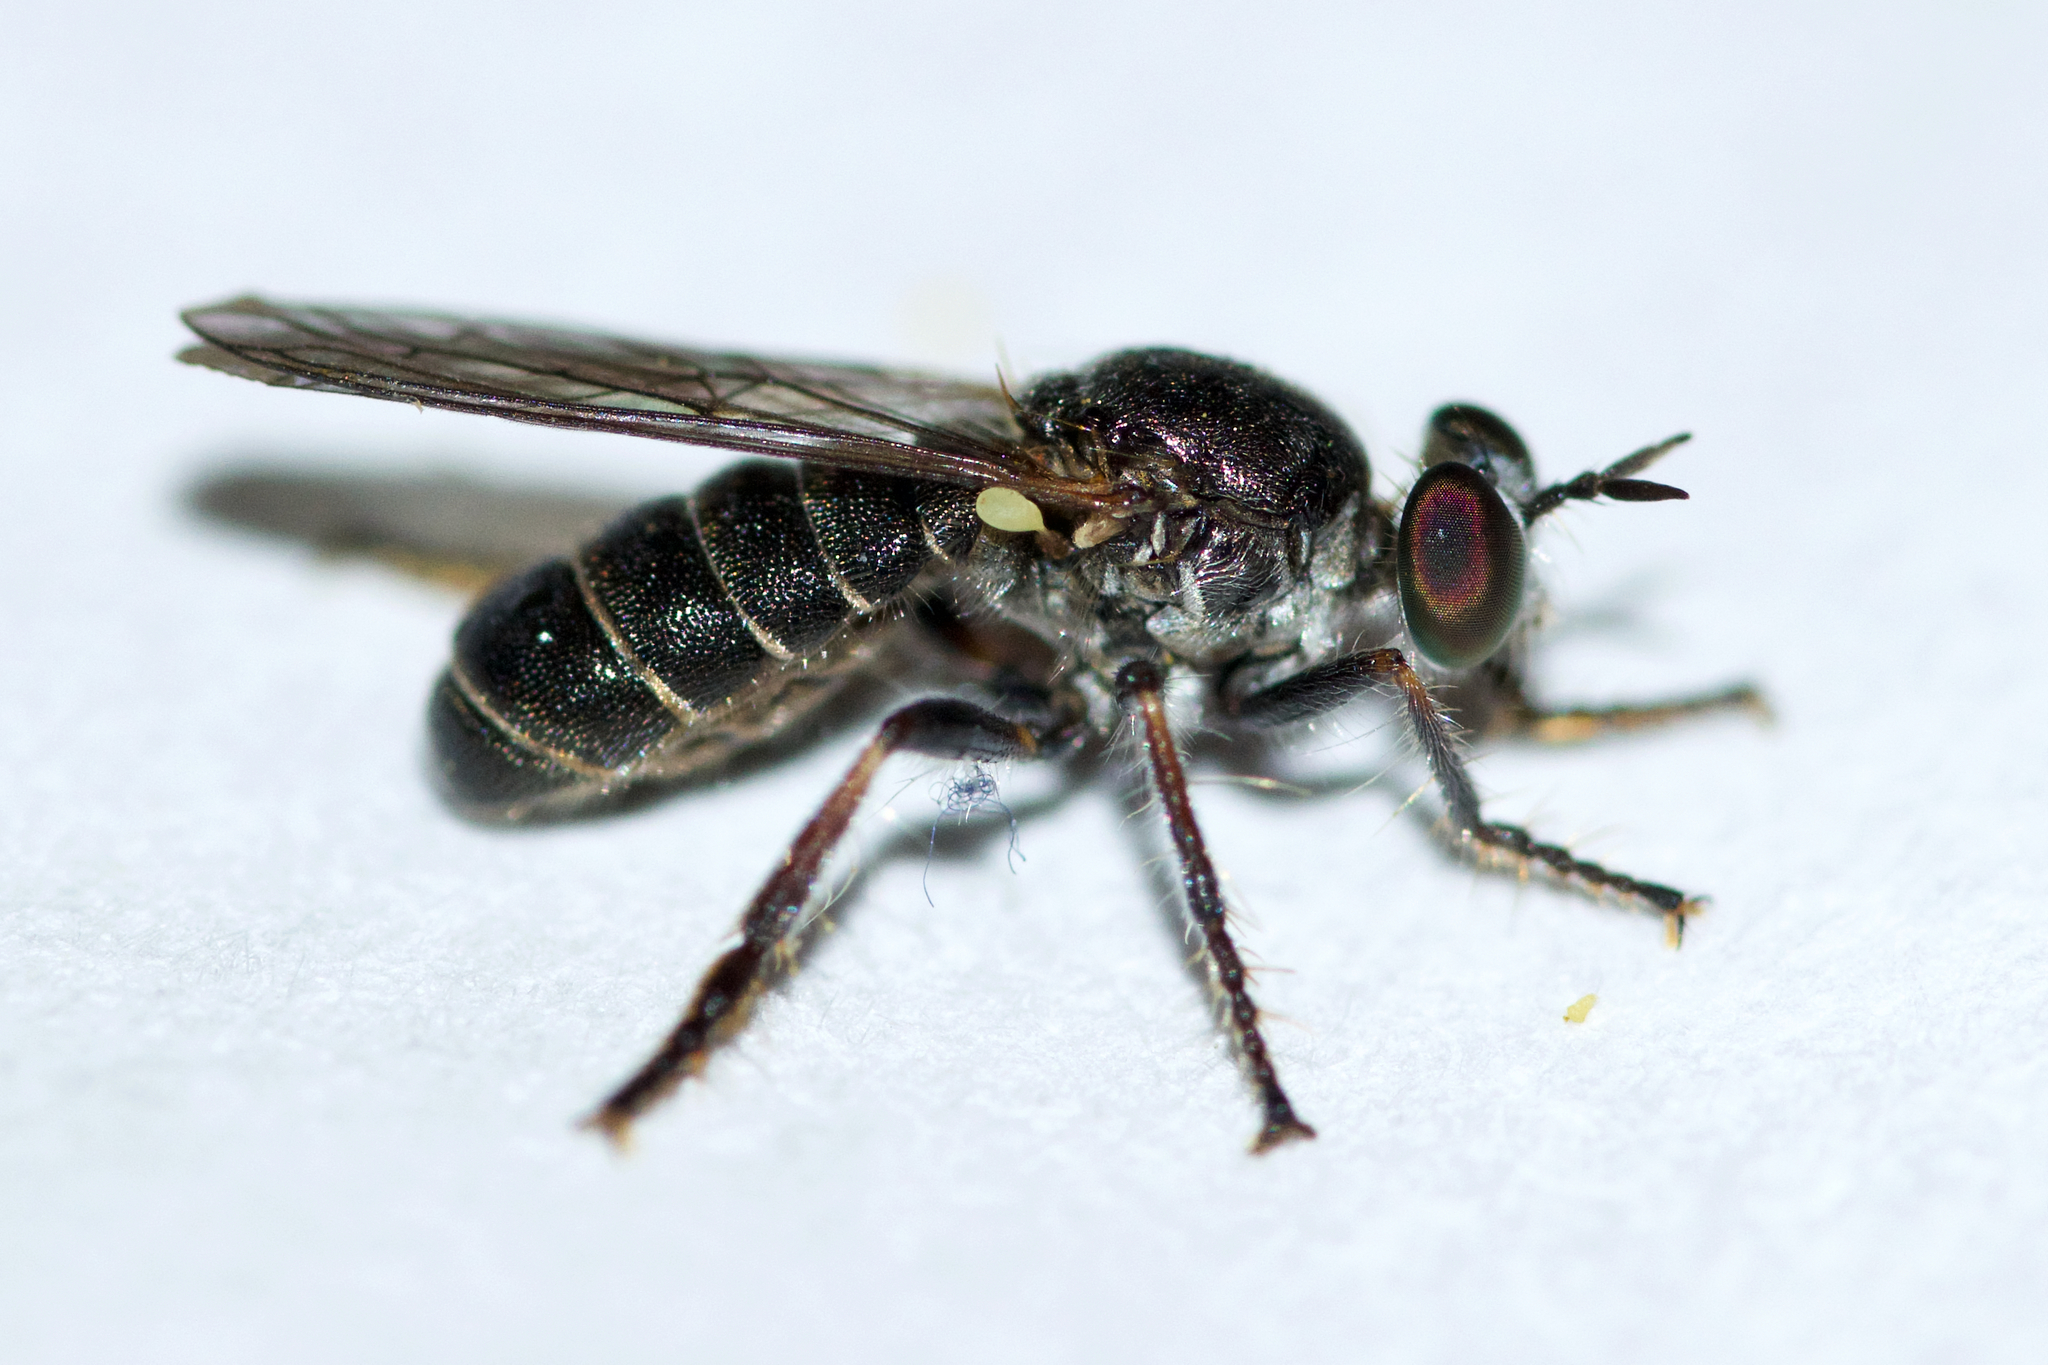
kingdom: Animalia
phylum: Arthropoda
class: Insecta
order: Diptera
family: Asilidae
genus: Atomosia
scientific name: Atomosia puella
